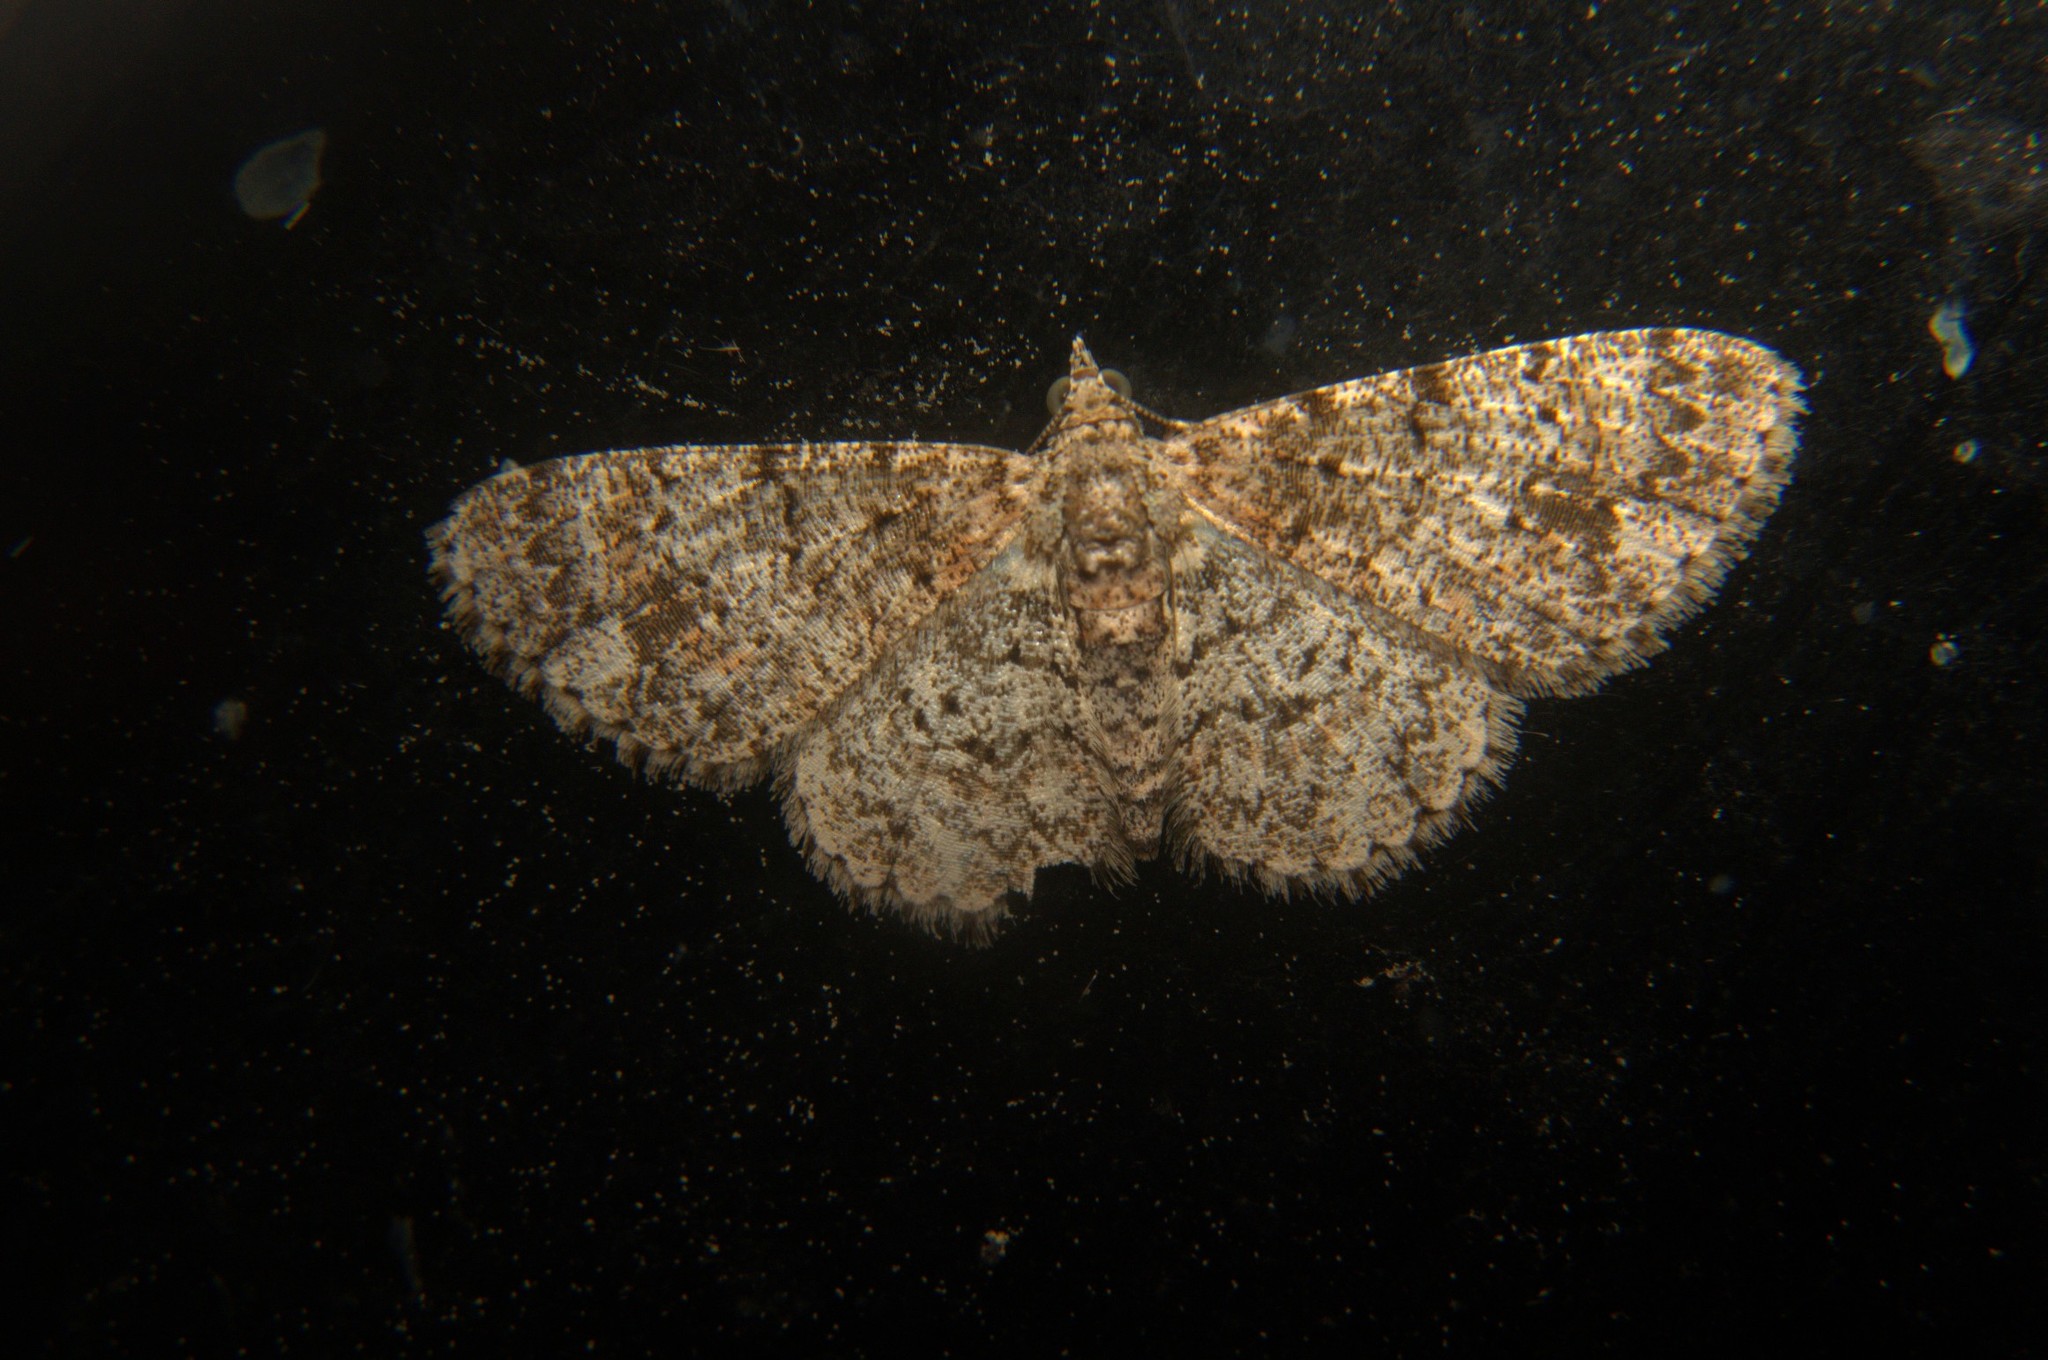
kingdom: Animalia
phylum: Arthropoda
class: Insecta
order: Lepidoptera
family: Geometridae
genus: Myrioblephara
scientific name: Myrioblephara idaeoides
